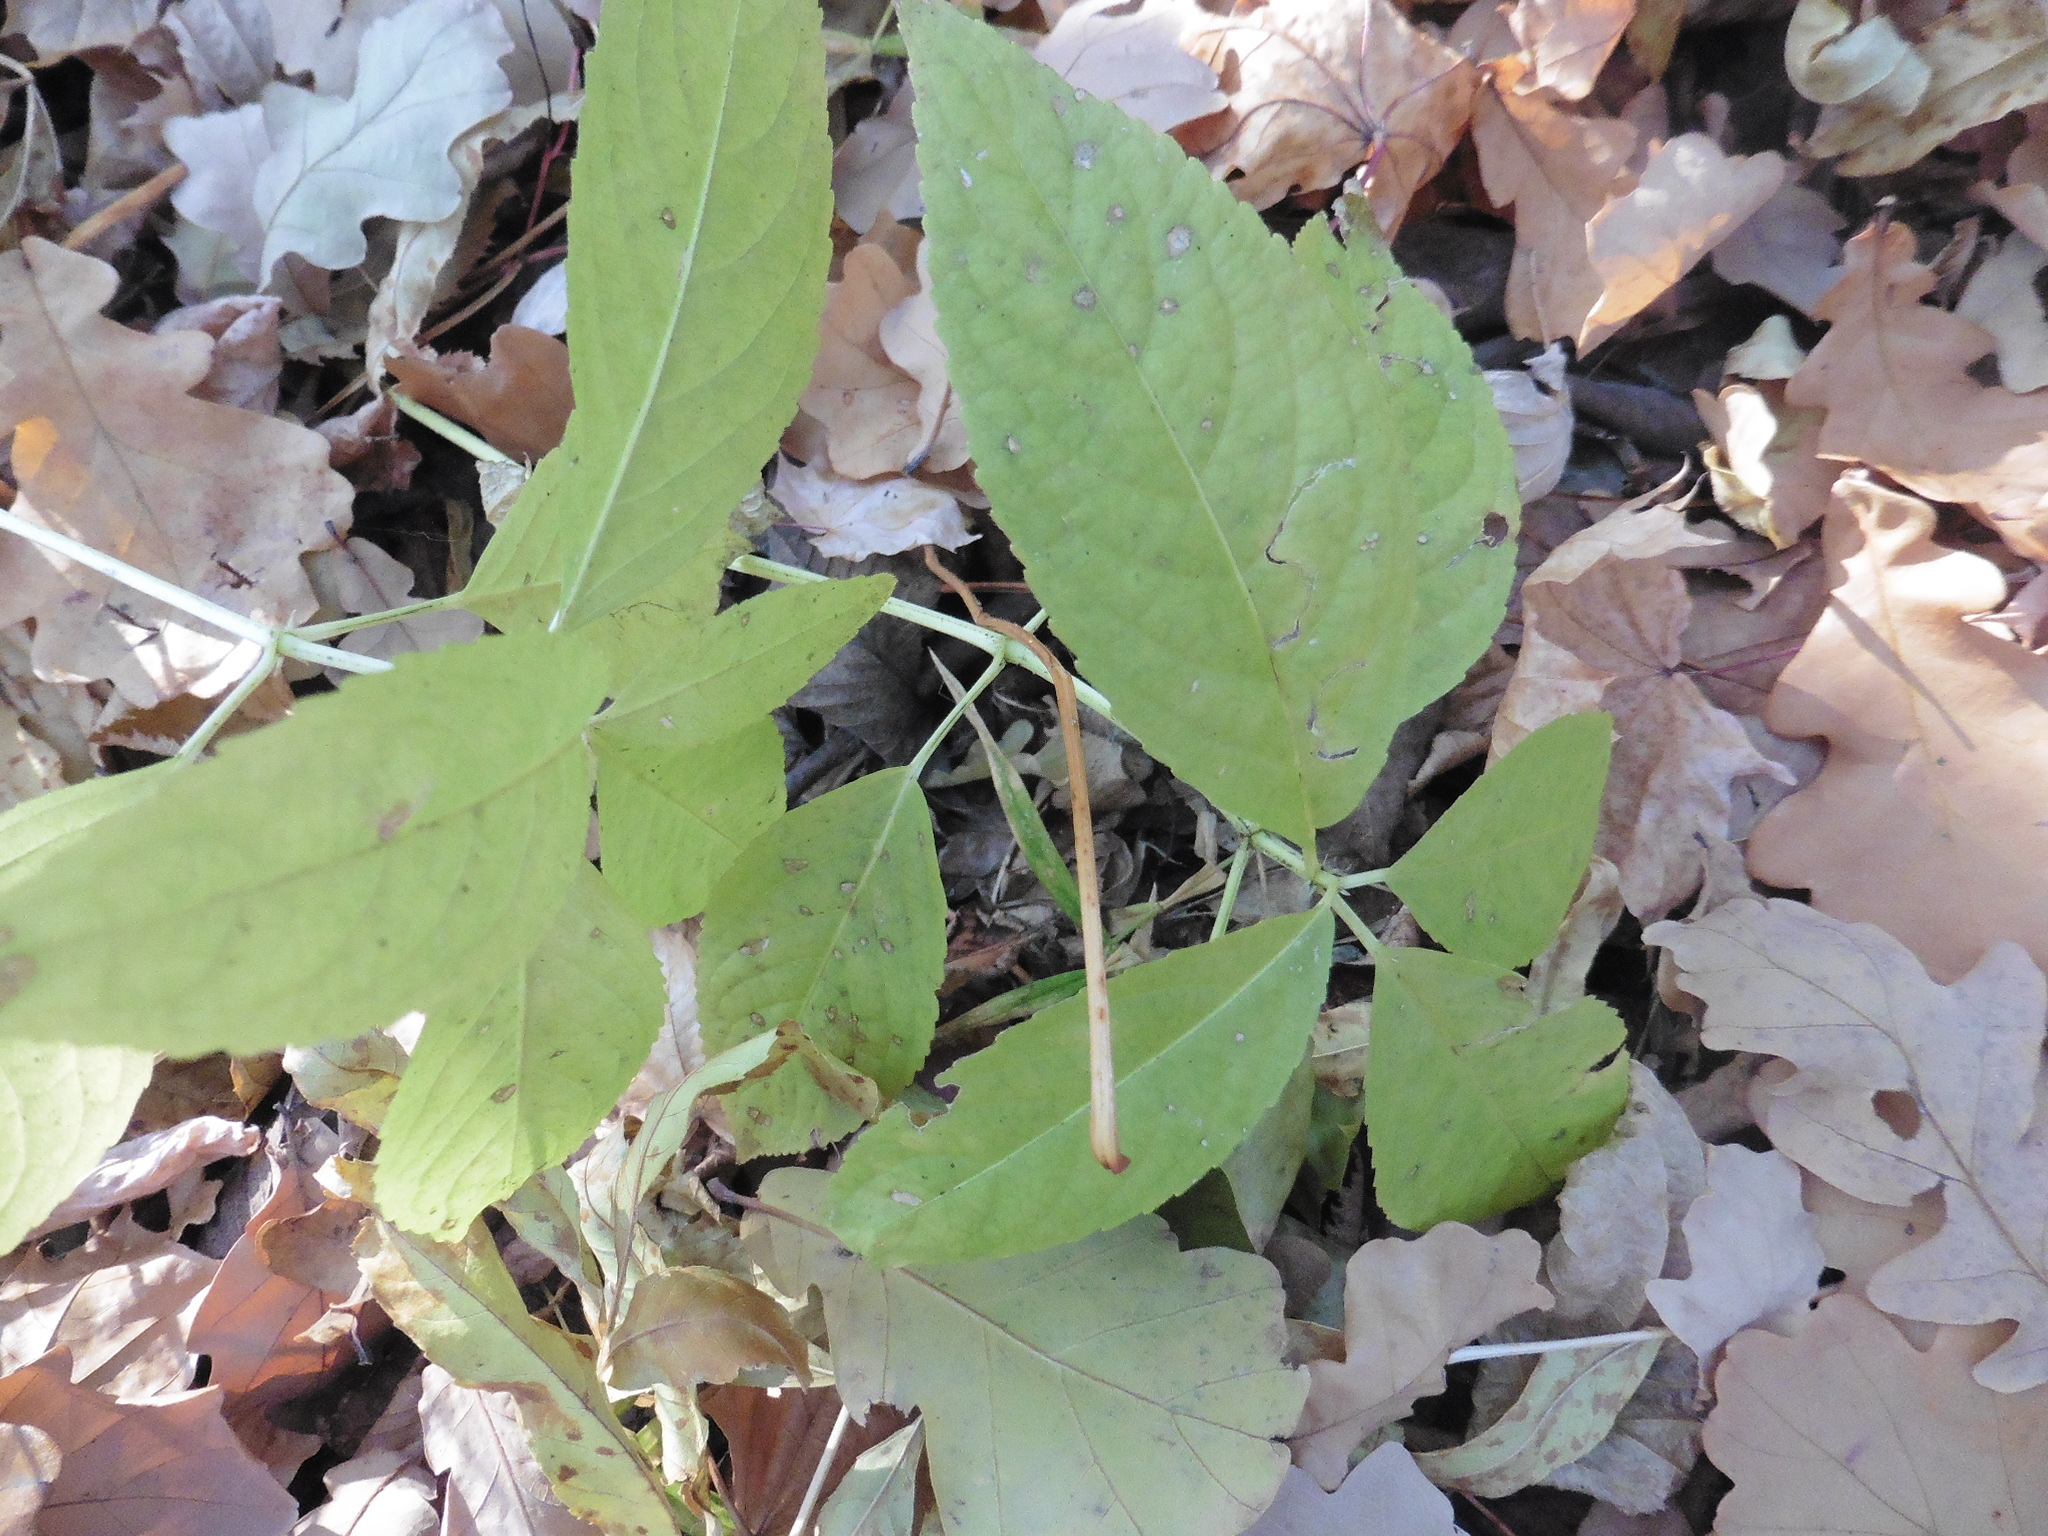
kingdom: Plantae
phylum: Tracheophyta
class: Magnoliopsida
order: Malpighiales
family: Euphorbiaceae
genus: Mercurialis
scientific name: Mercurialis perennis
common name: Dog mercury
